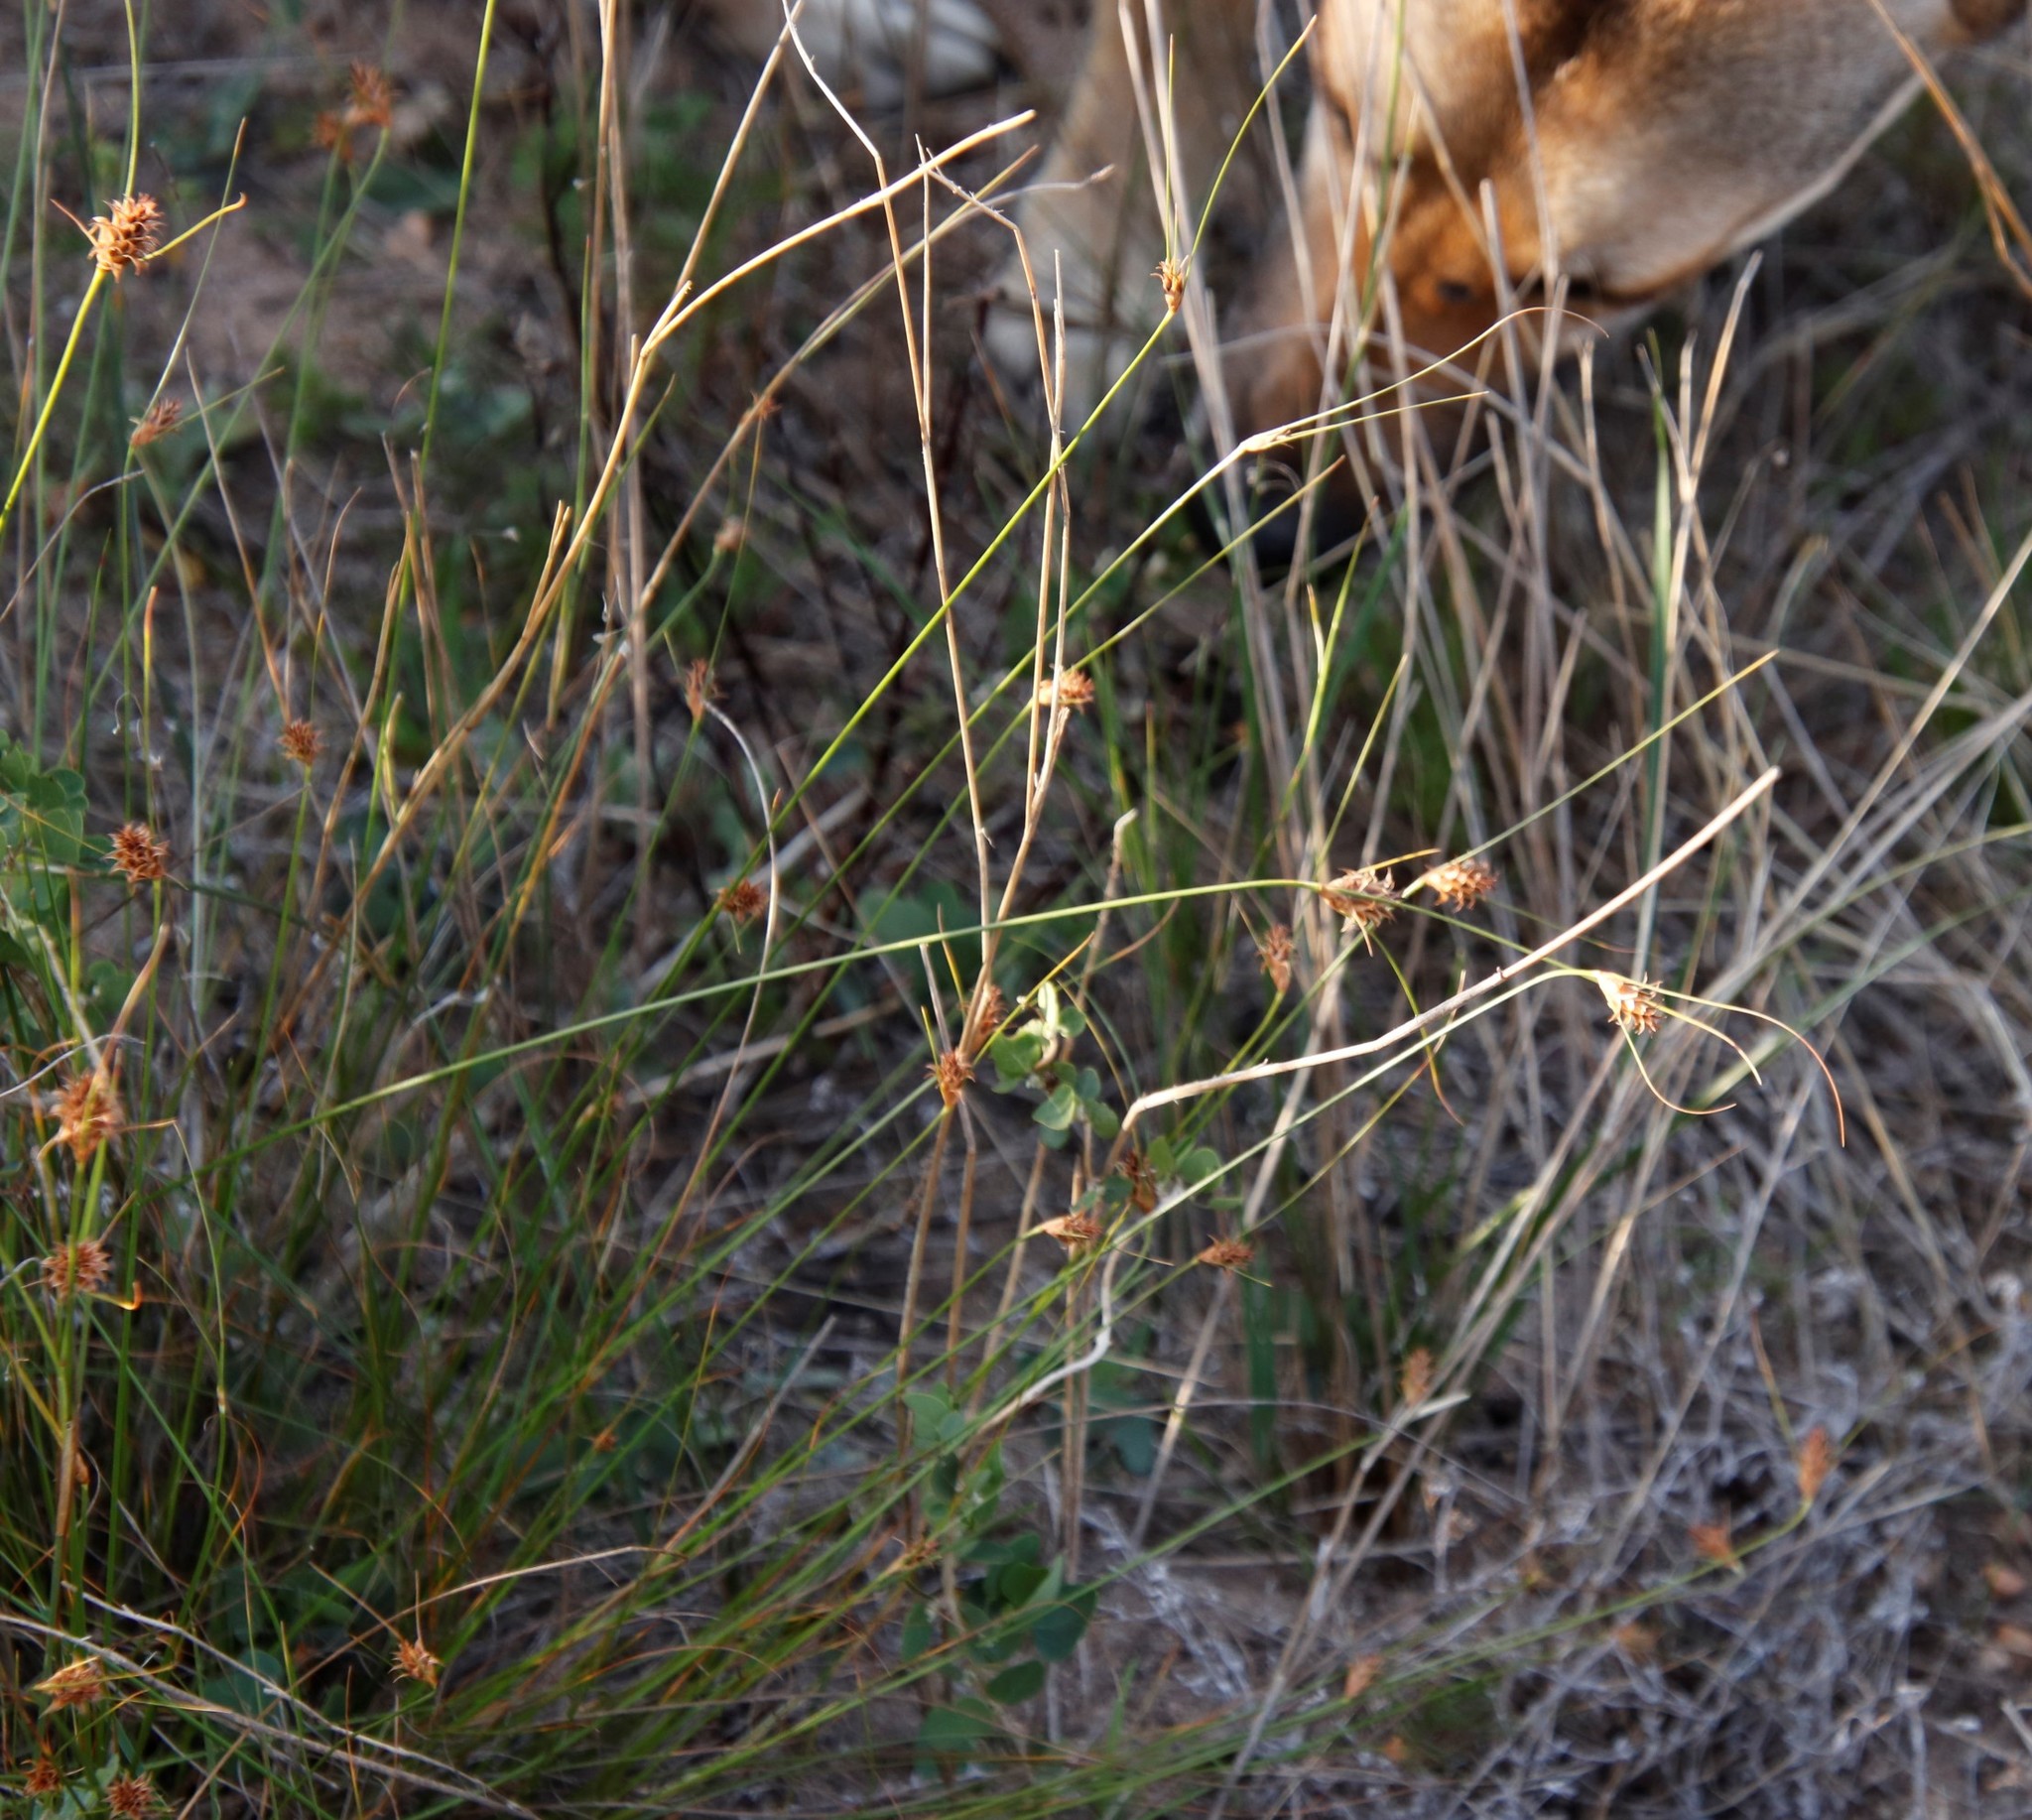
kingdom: Plantae
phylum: Tracheophyta
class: Liliopsida
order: Poales
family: Cyperaceae
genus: Ficinia
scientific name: Ficinia nigrescens
